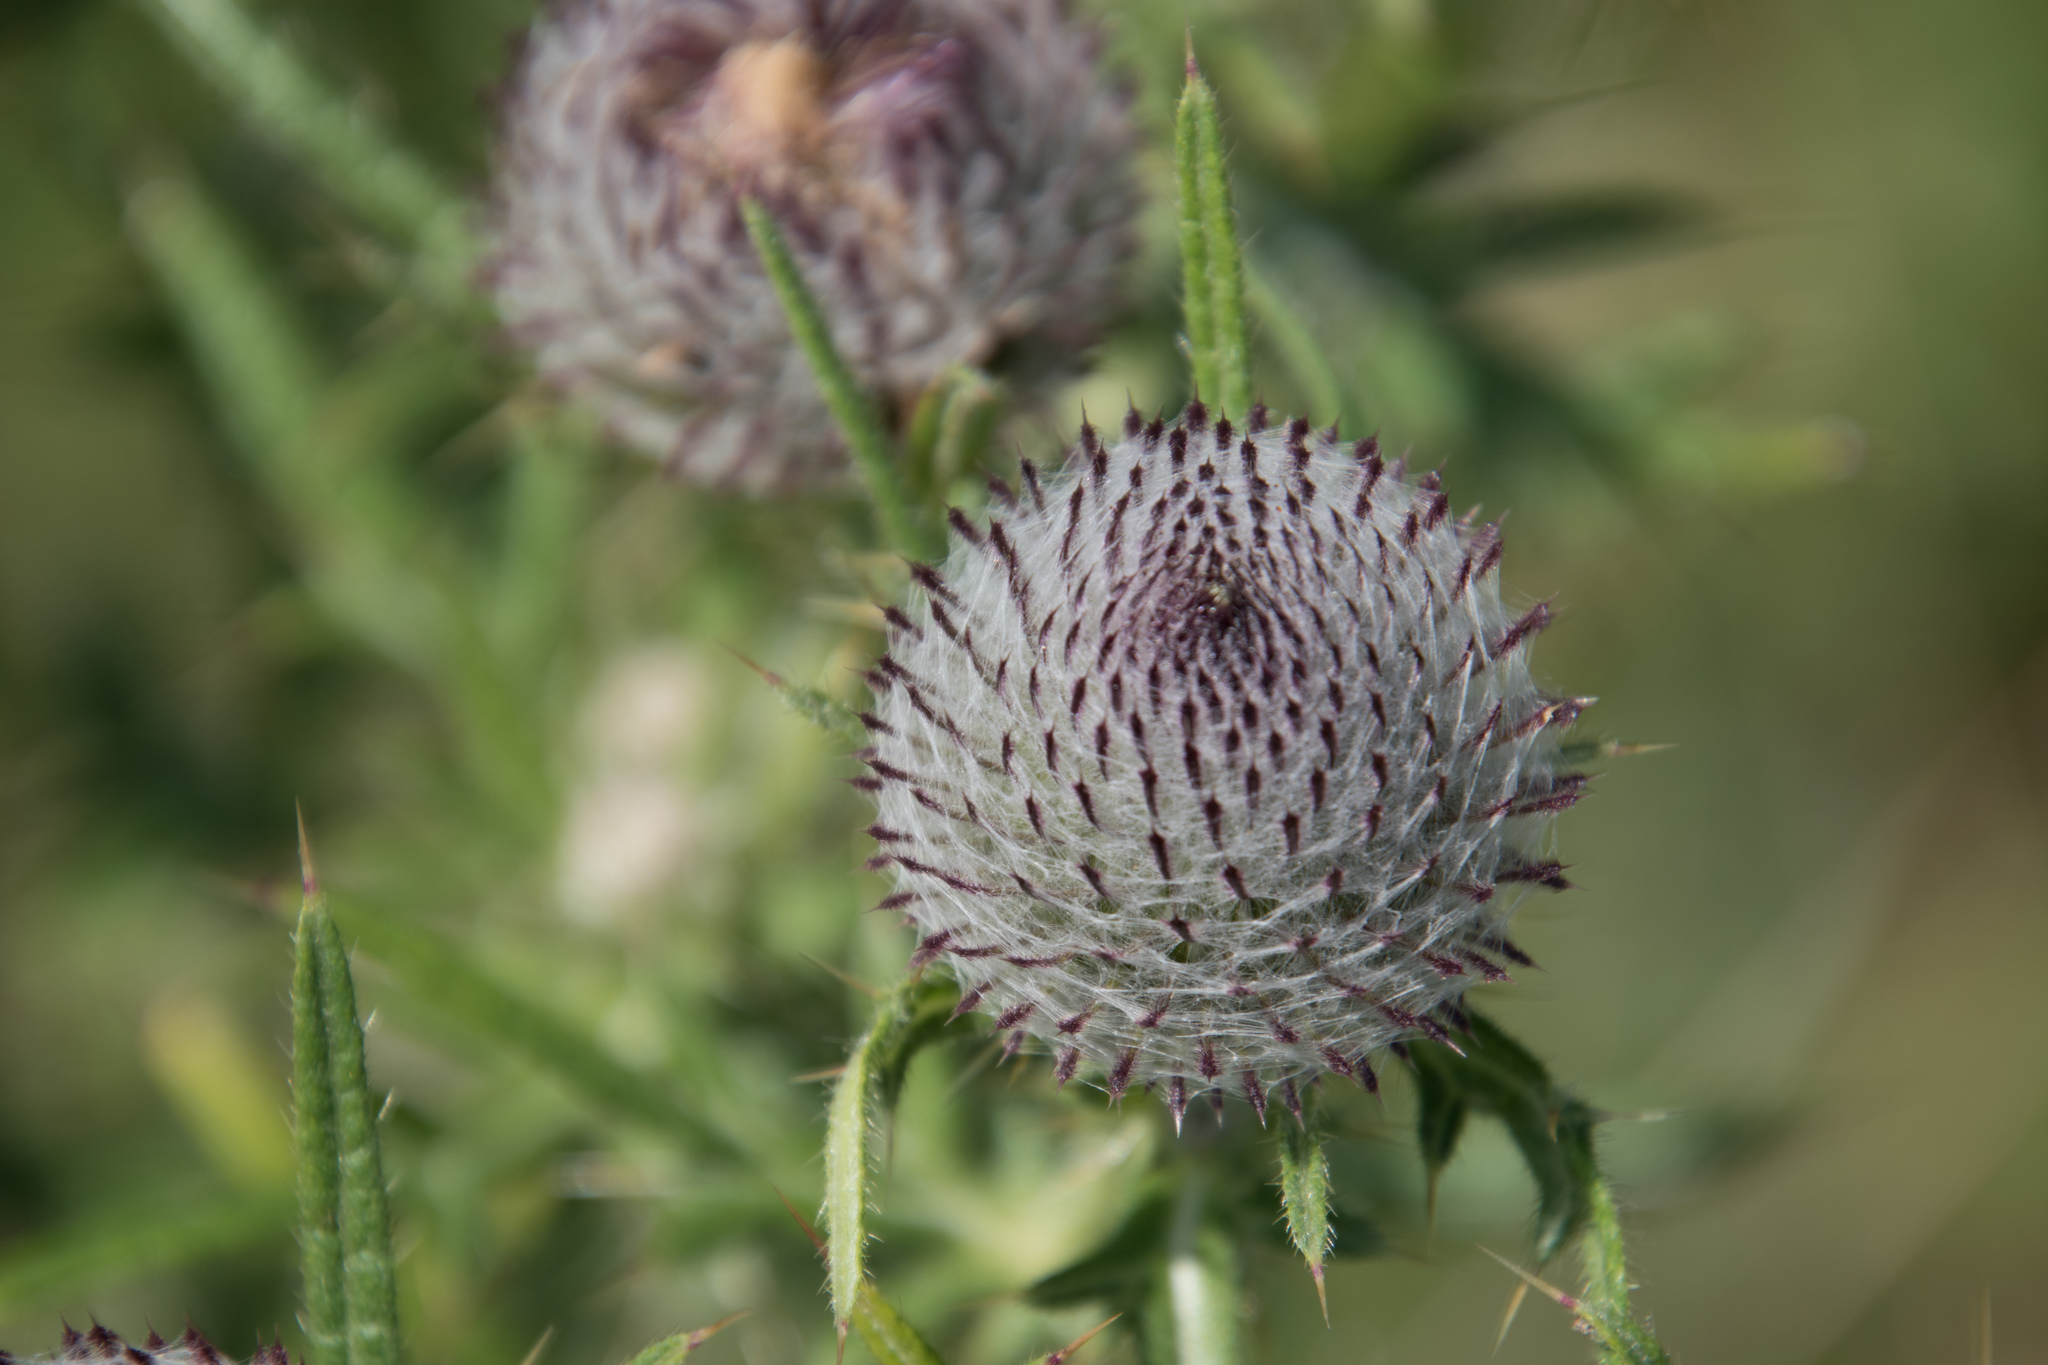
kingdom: Plantae
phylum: Tracheophyta
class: Magnoliopsida
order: Asterales
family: Asteraceae
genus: Lophiolepis
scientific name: Lophiolepis eriophora
